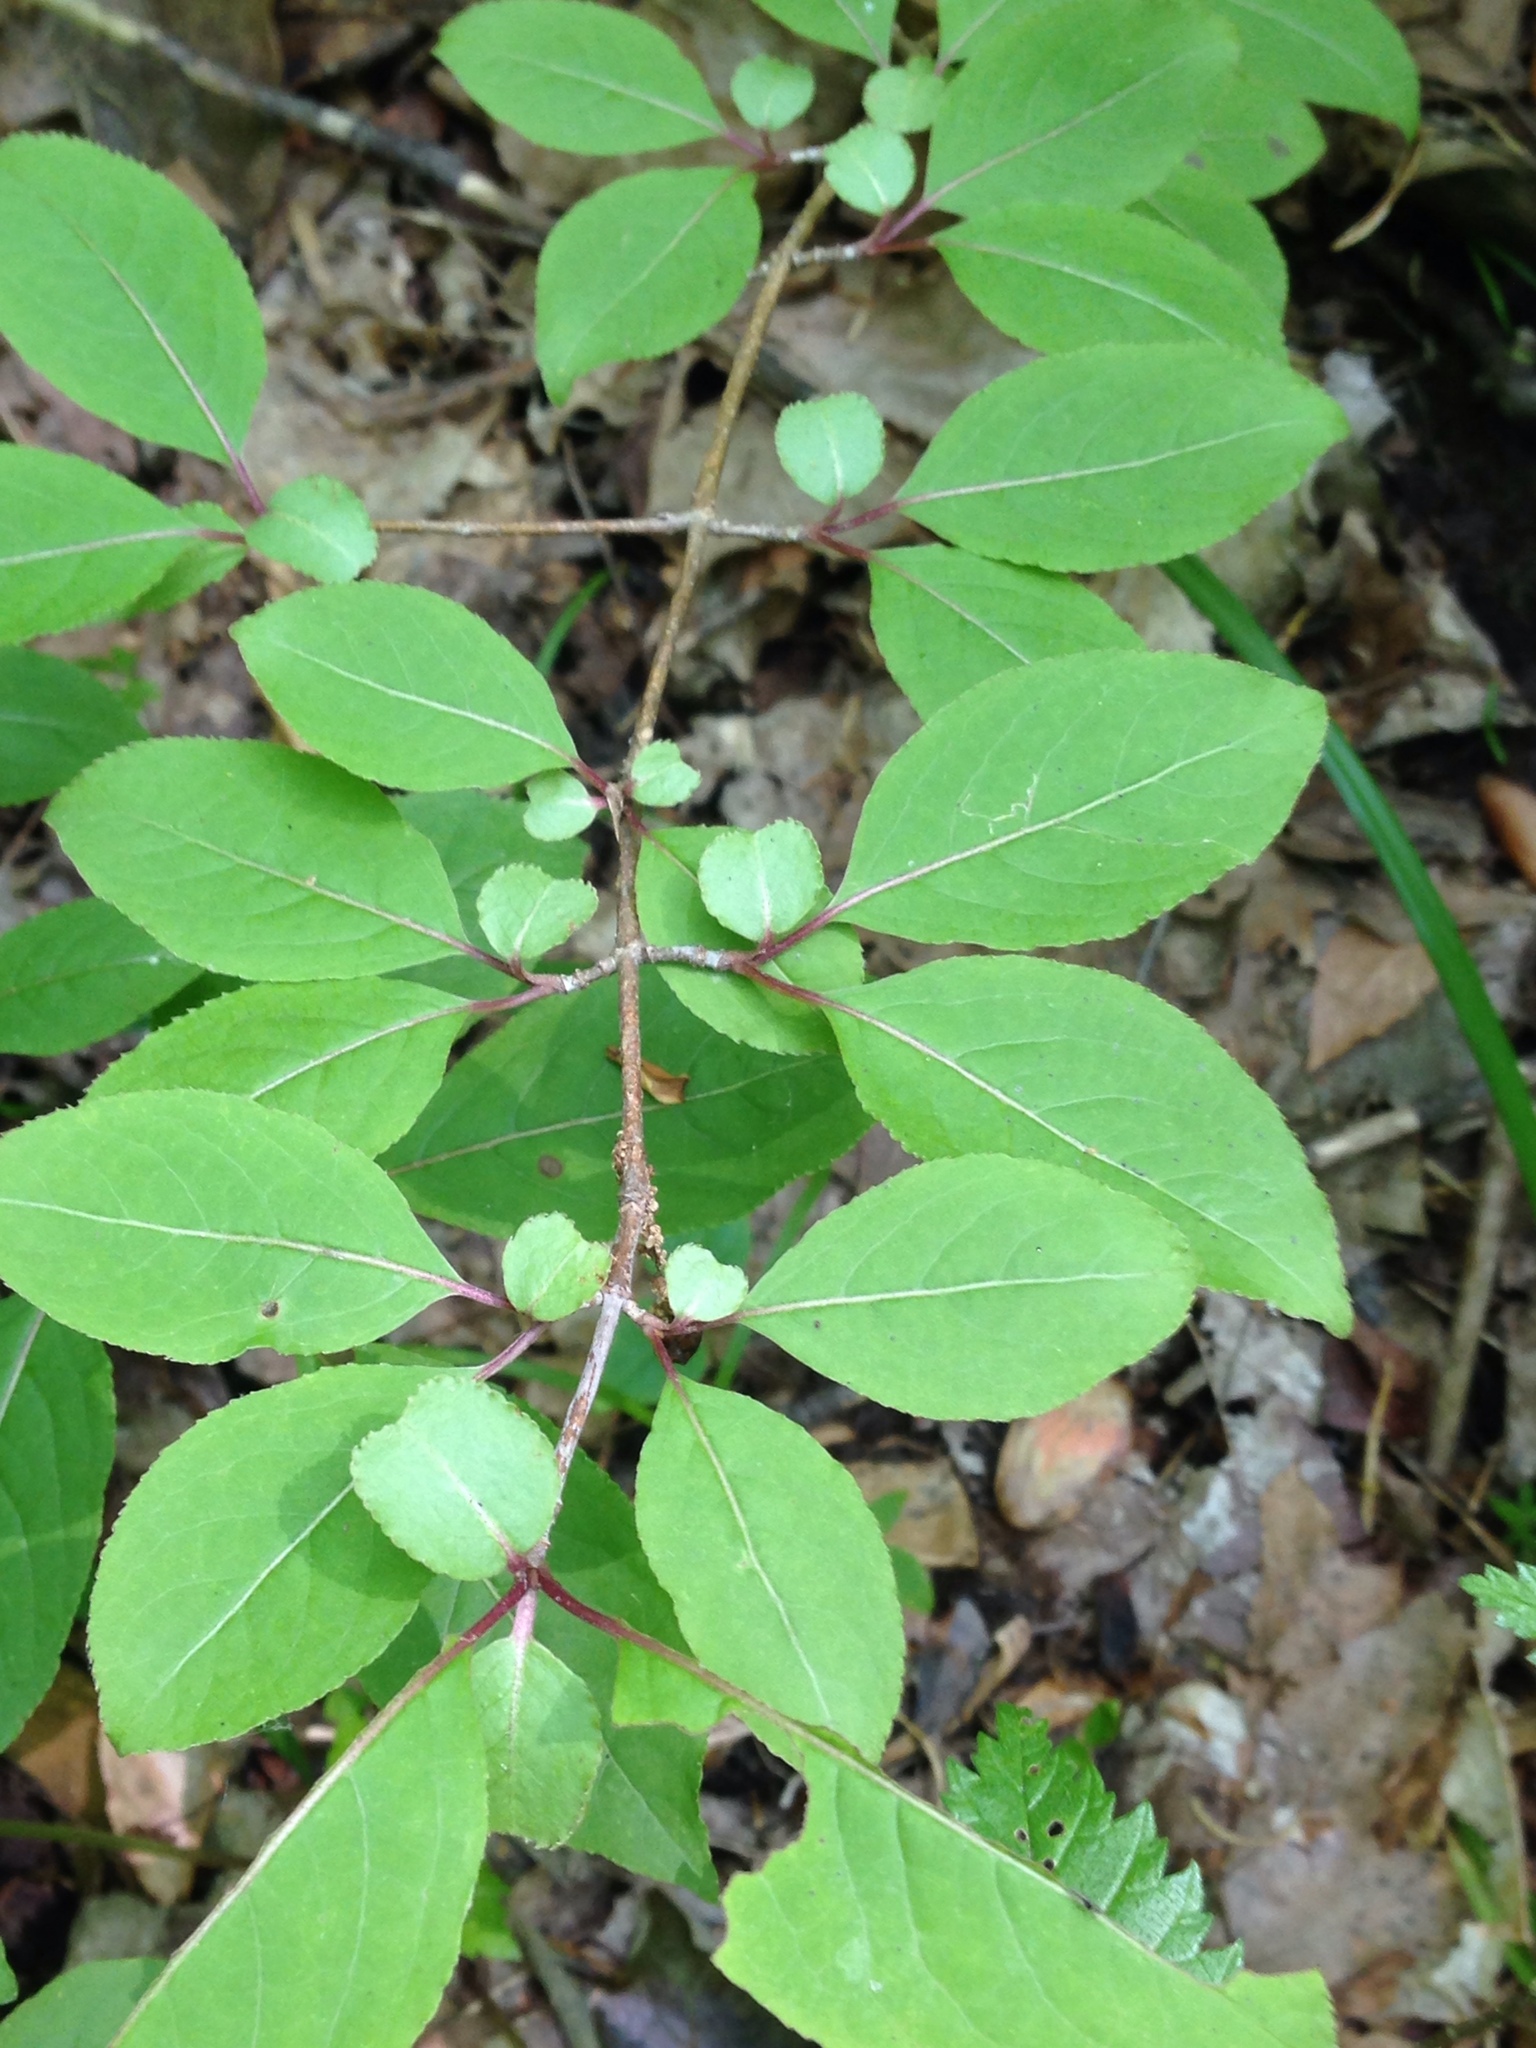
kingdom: Plantae
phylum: Tracheophyta
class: Magnoliopsida
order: Dipsacales
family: Viburnaceae
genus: Viburnum
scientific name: Viburnum prunifolium
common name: Black haw
